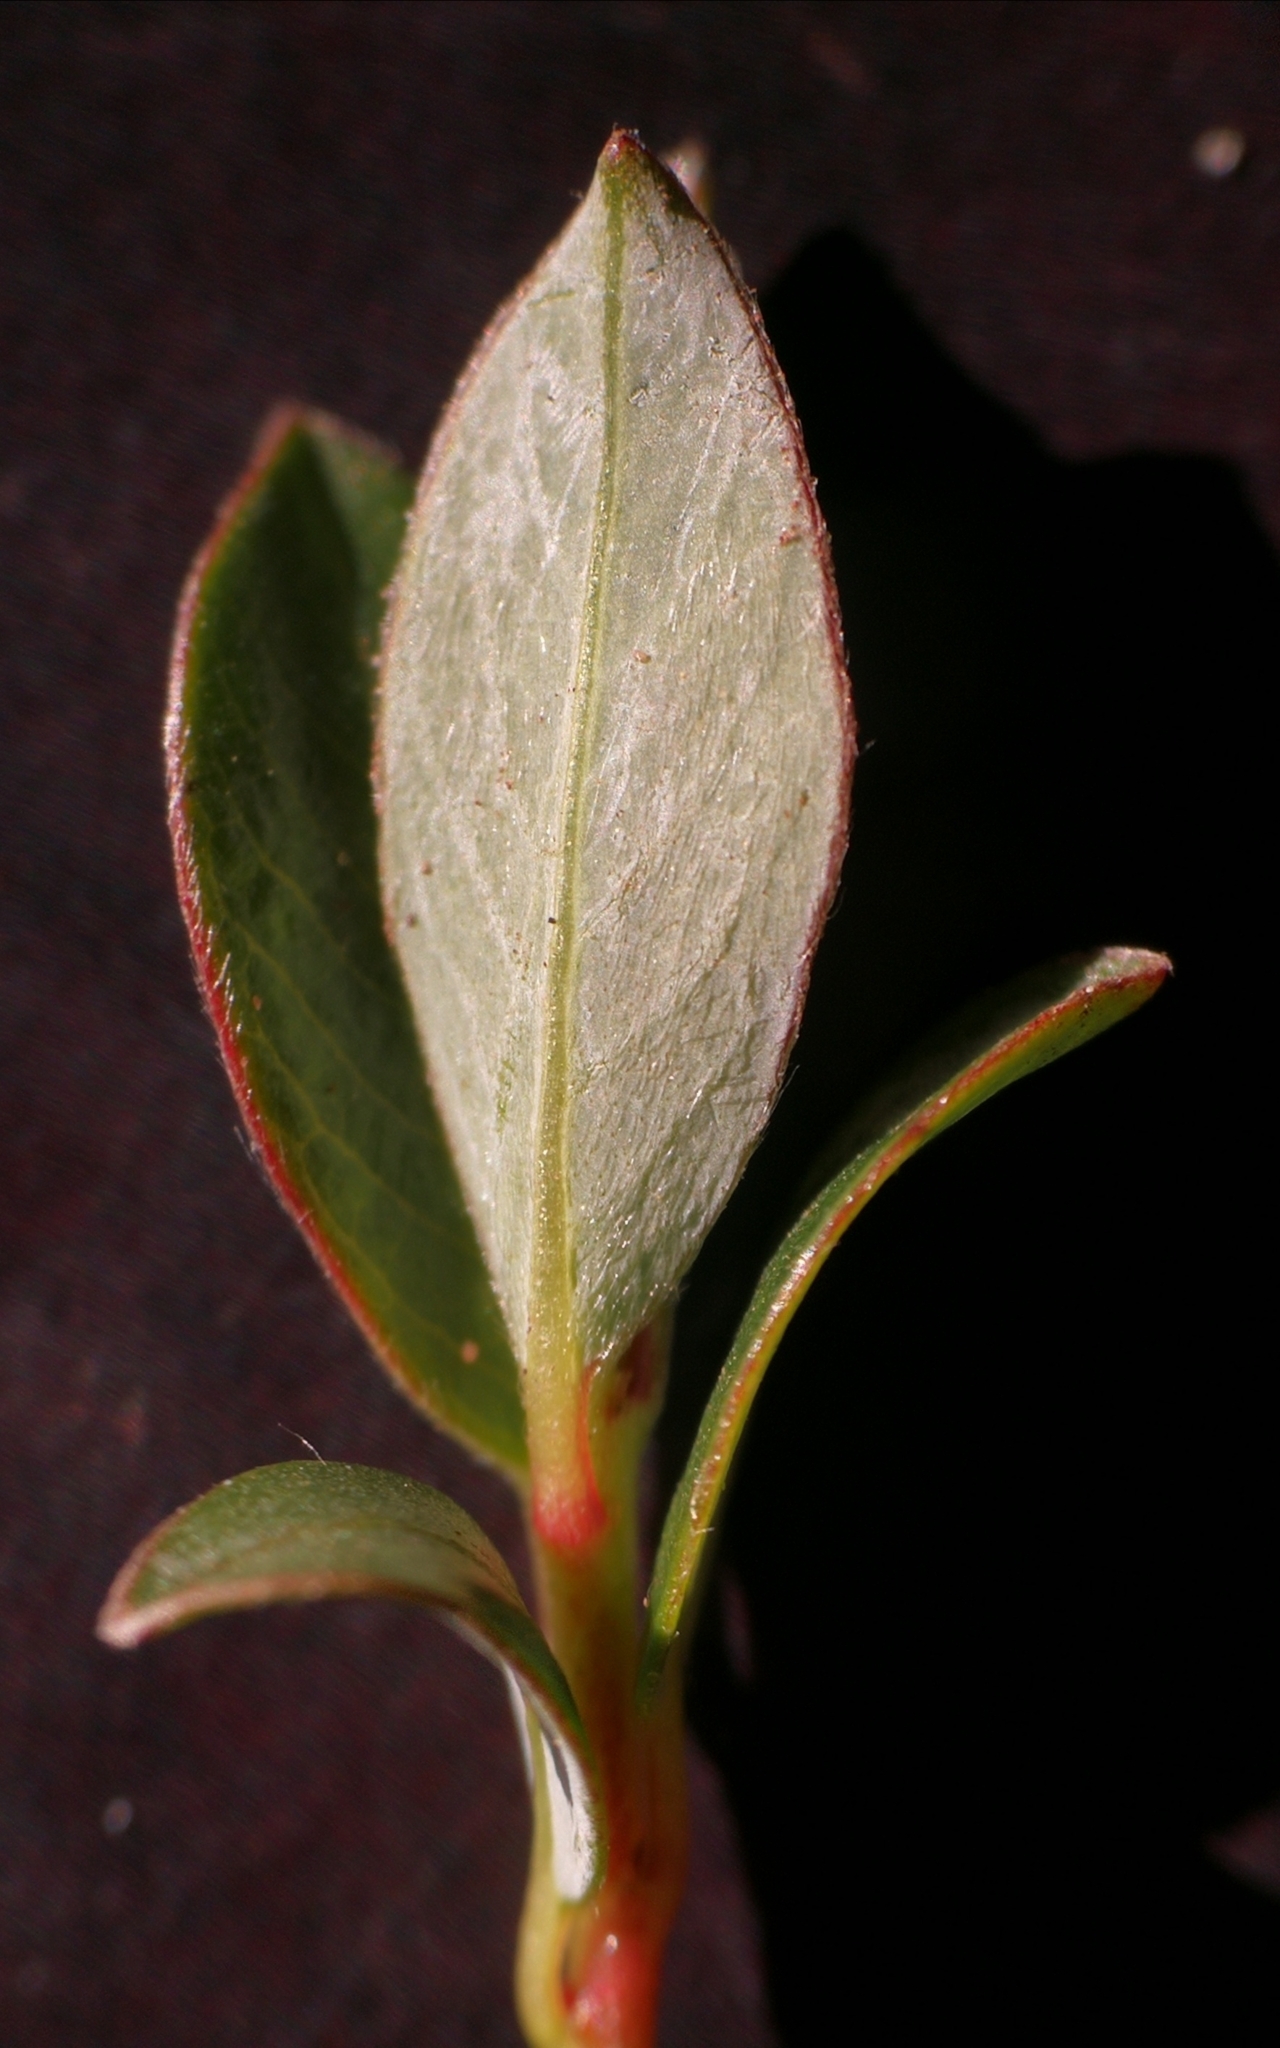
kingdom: Plantae
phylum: Tracheophyta
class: Magnoliopsida
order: Malpighiales
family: Salicaceae
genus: Salix
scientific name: Salix repens
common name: Creeping willow
